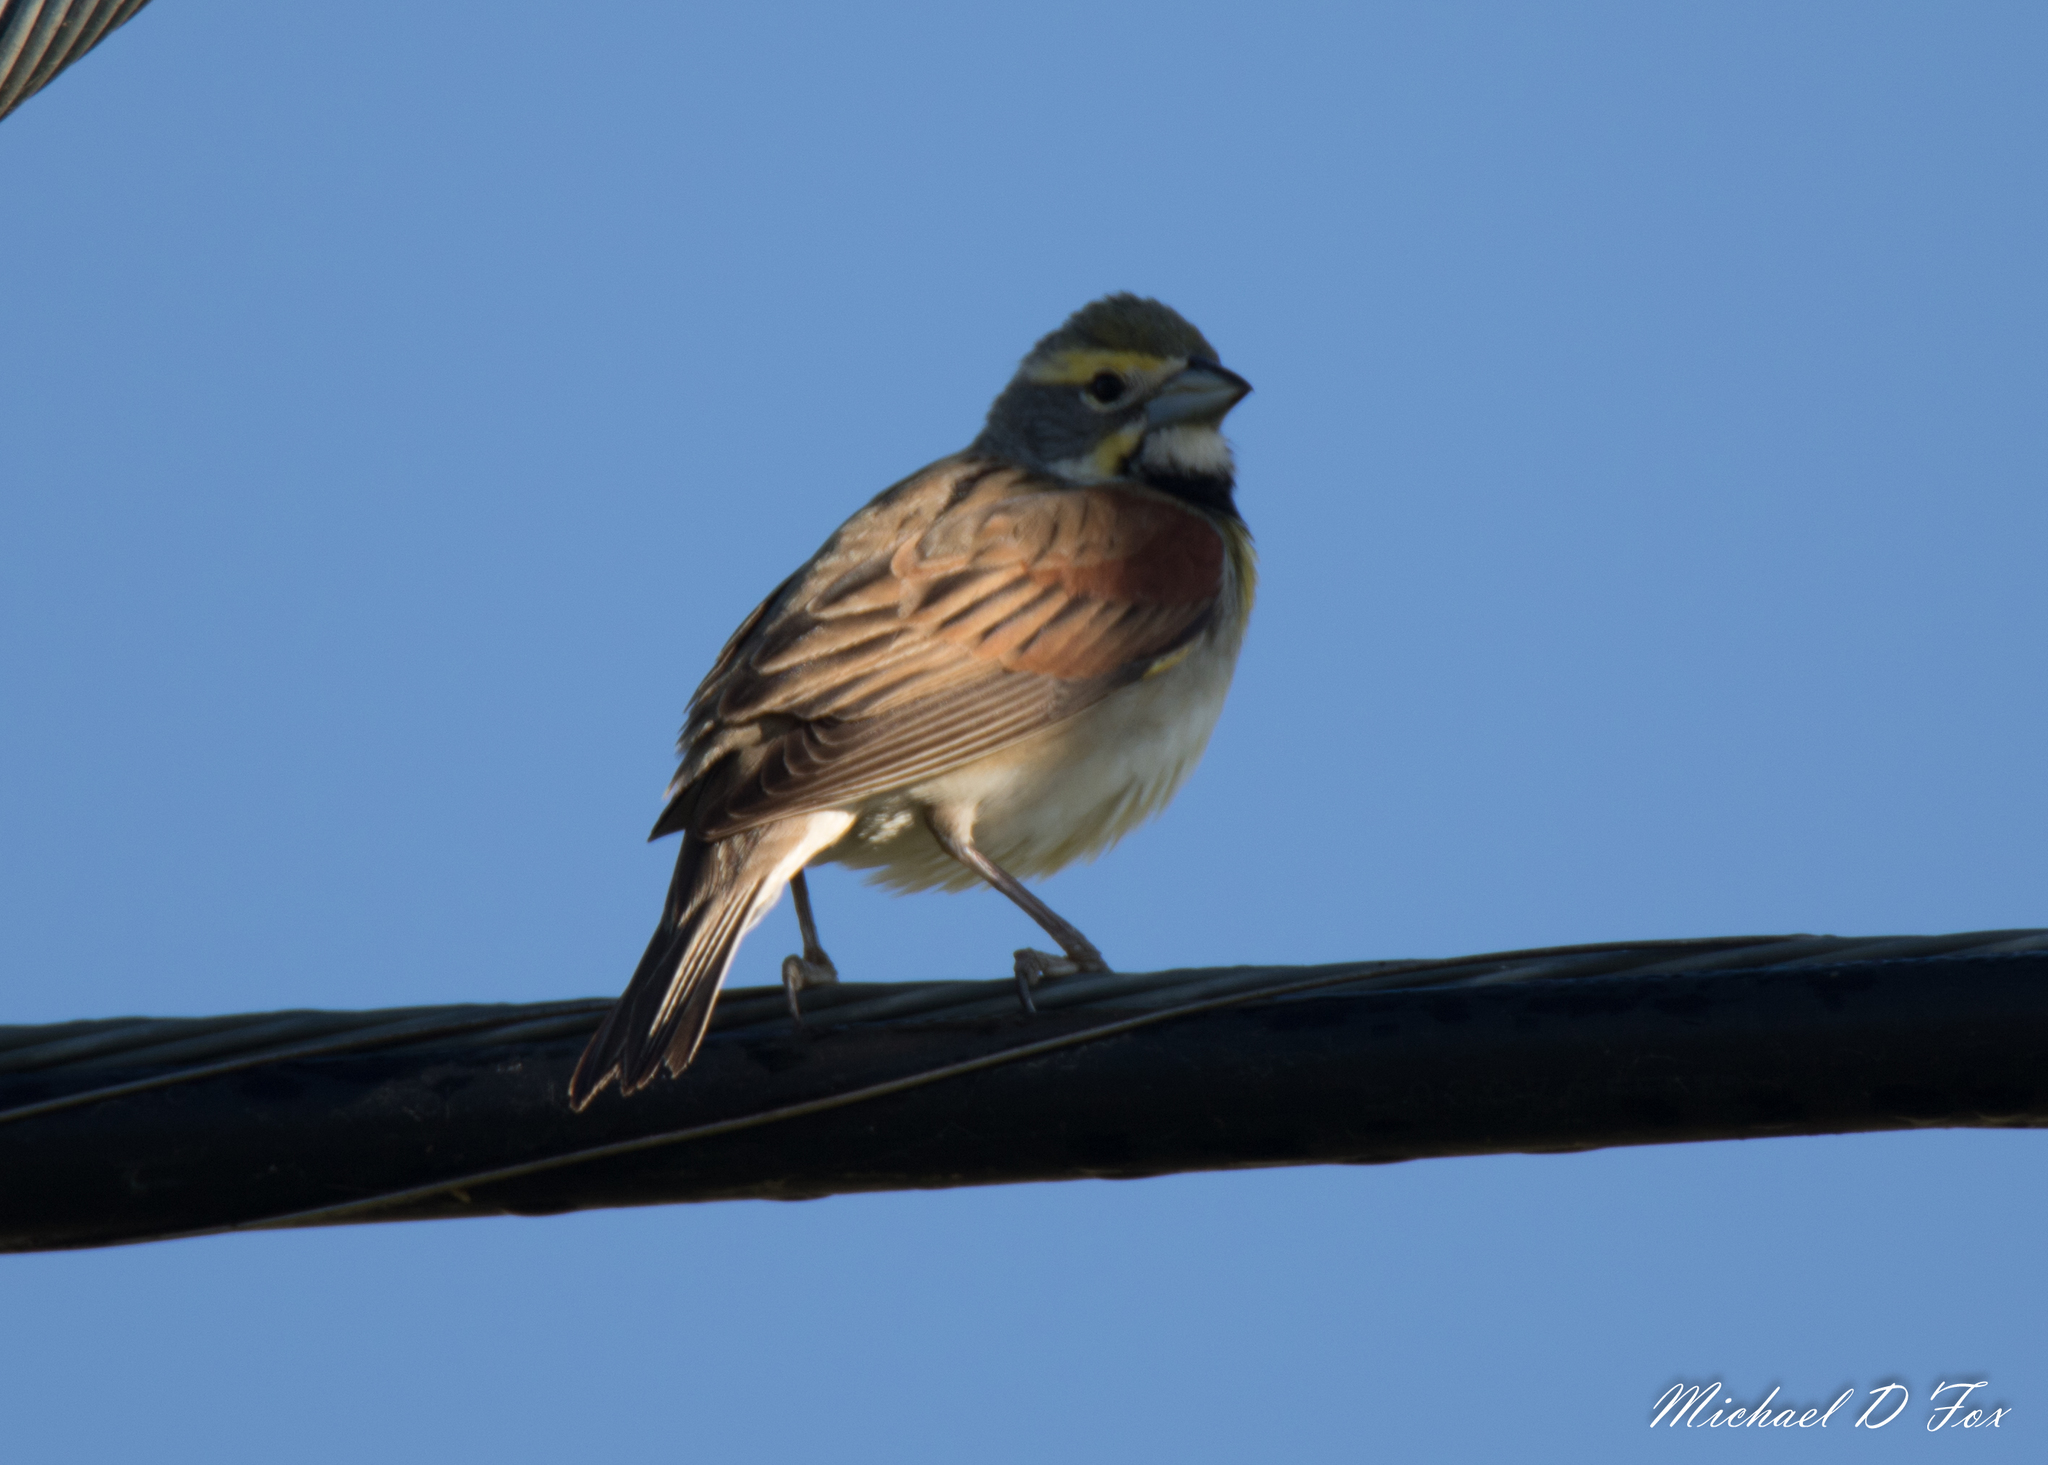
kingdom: Animalia
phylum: Chordata
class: Aves
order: Passeriformes
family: Cardinalidae
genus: Spiza
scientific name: Spiza americana
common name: Dickcissel
